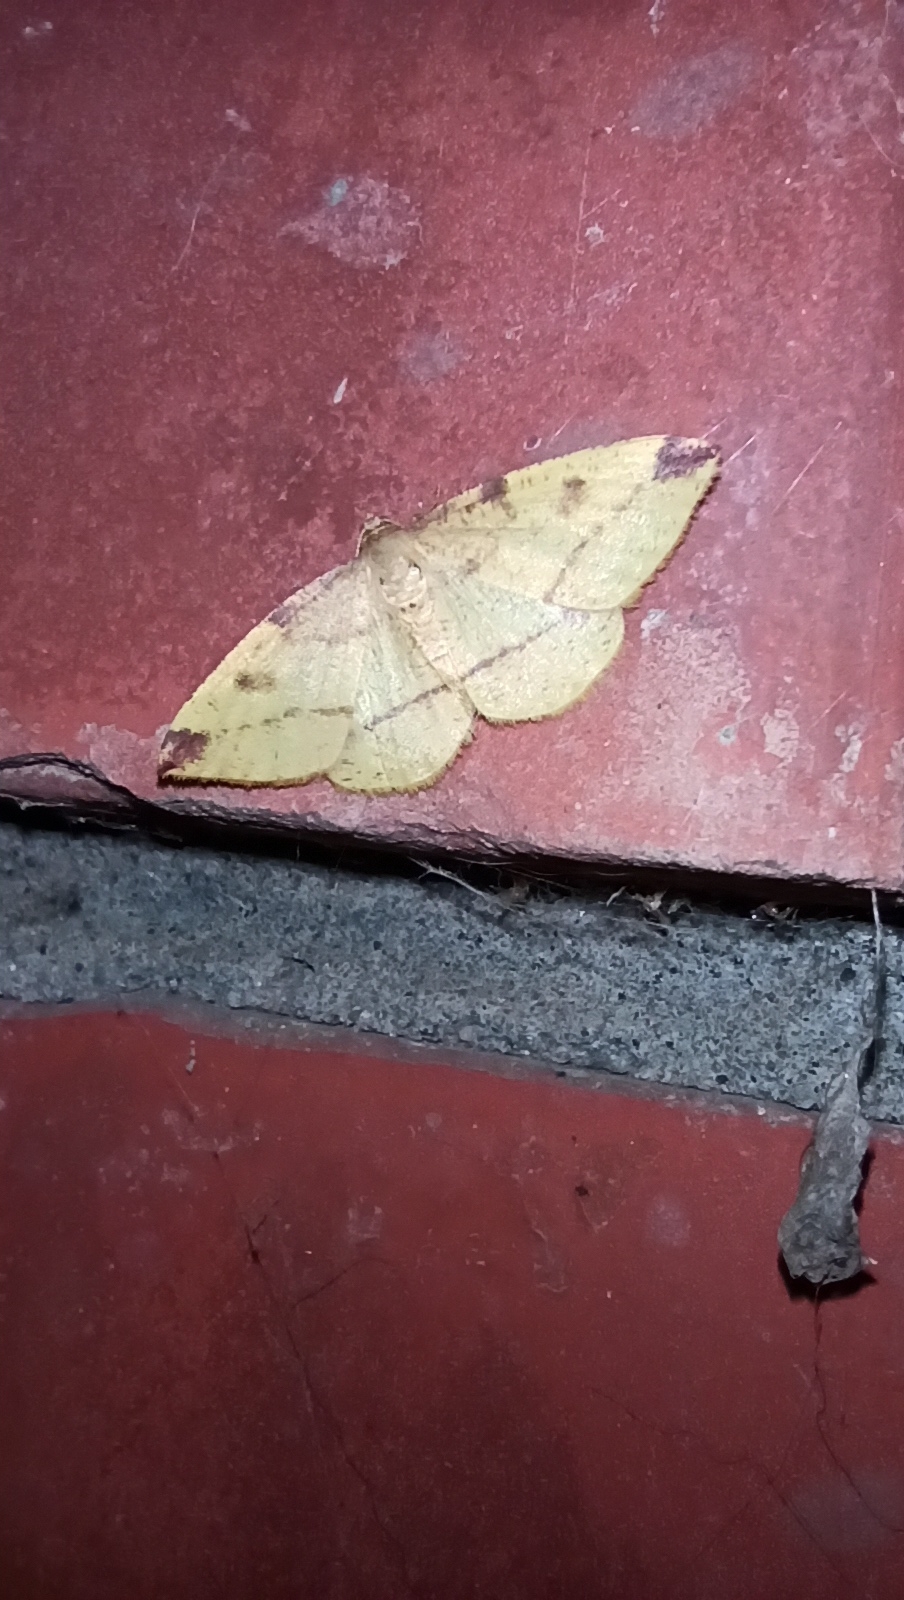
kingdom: Animalia
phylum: Arthropoda
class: Insecta
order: Lepidoptera
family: Geometridae
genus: Heterolocha
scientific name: Heterolocha laminaria
